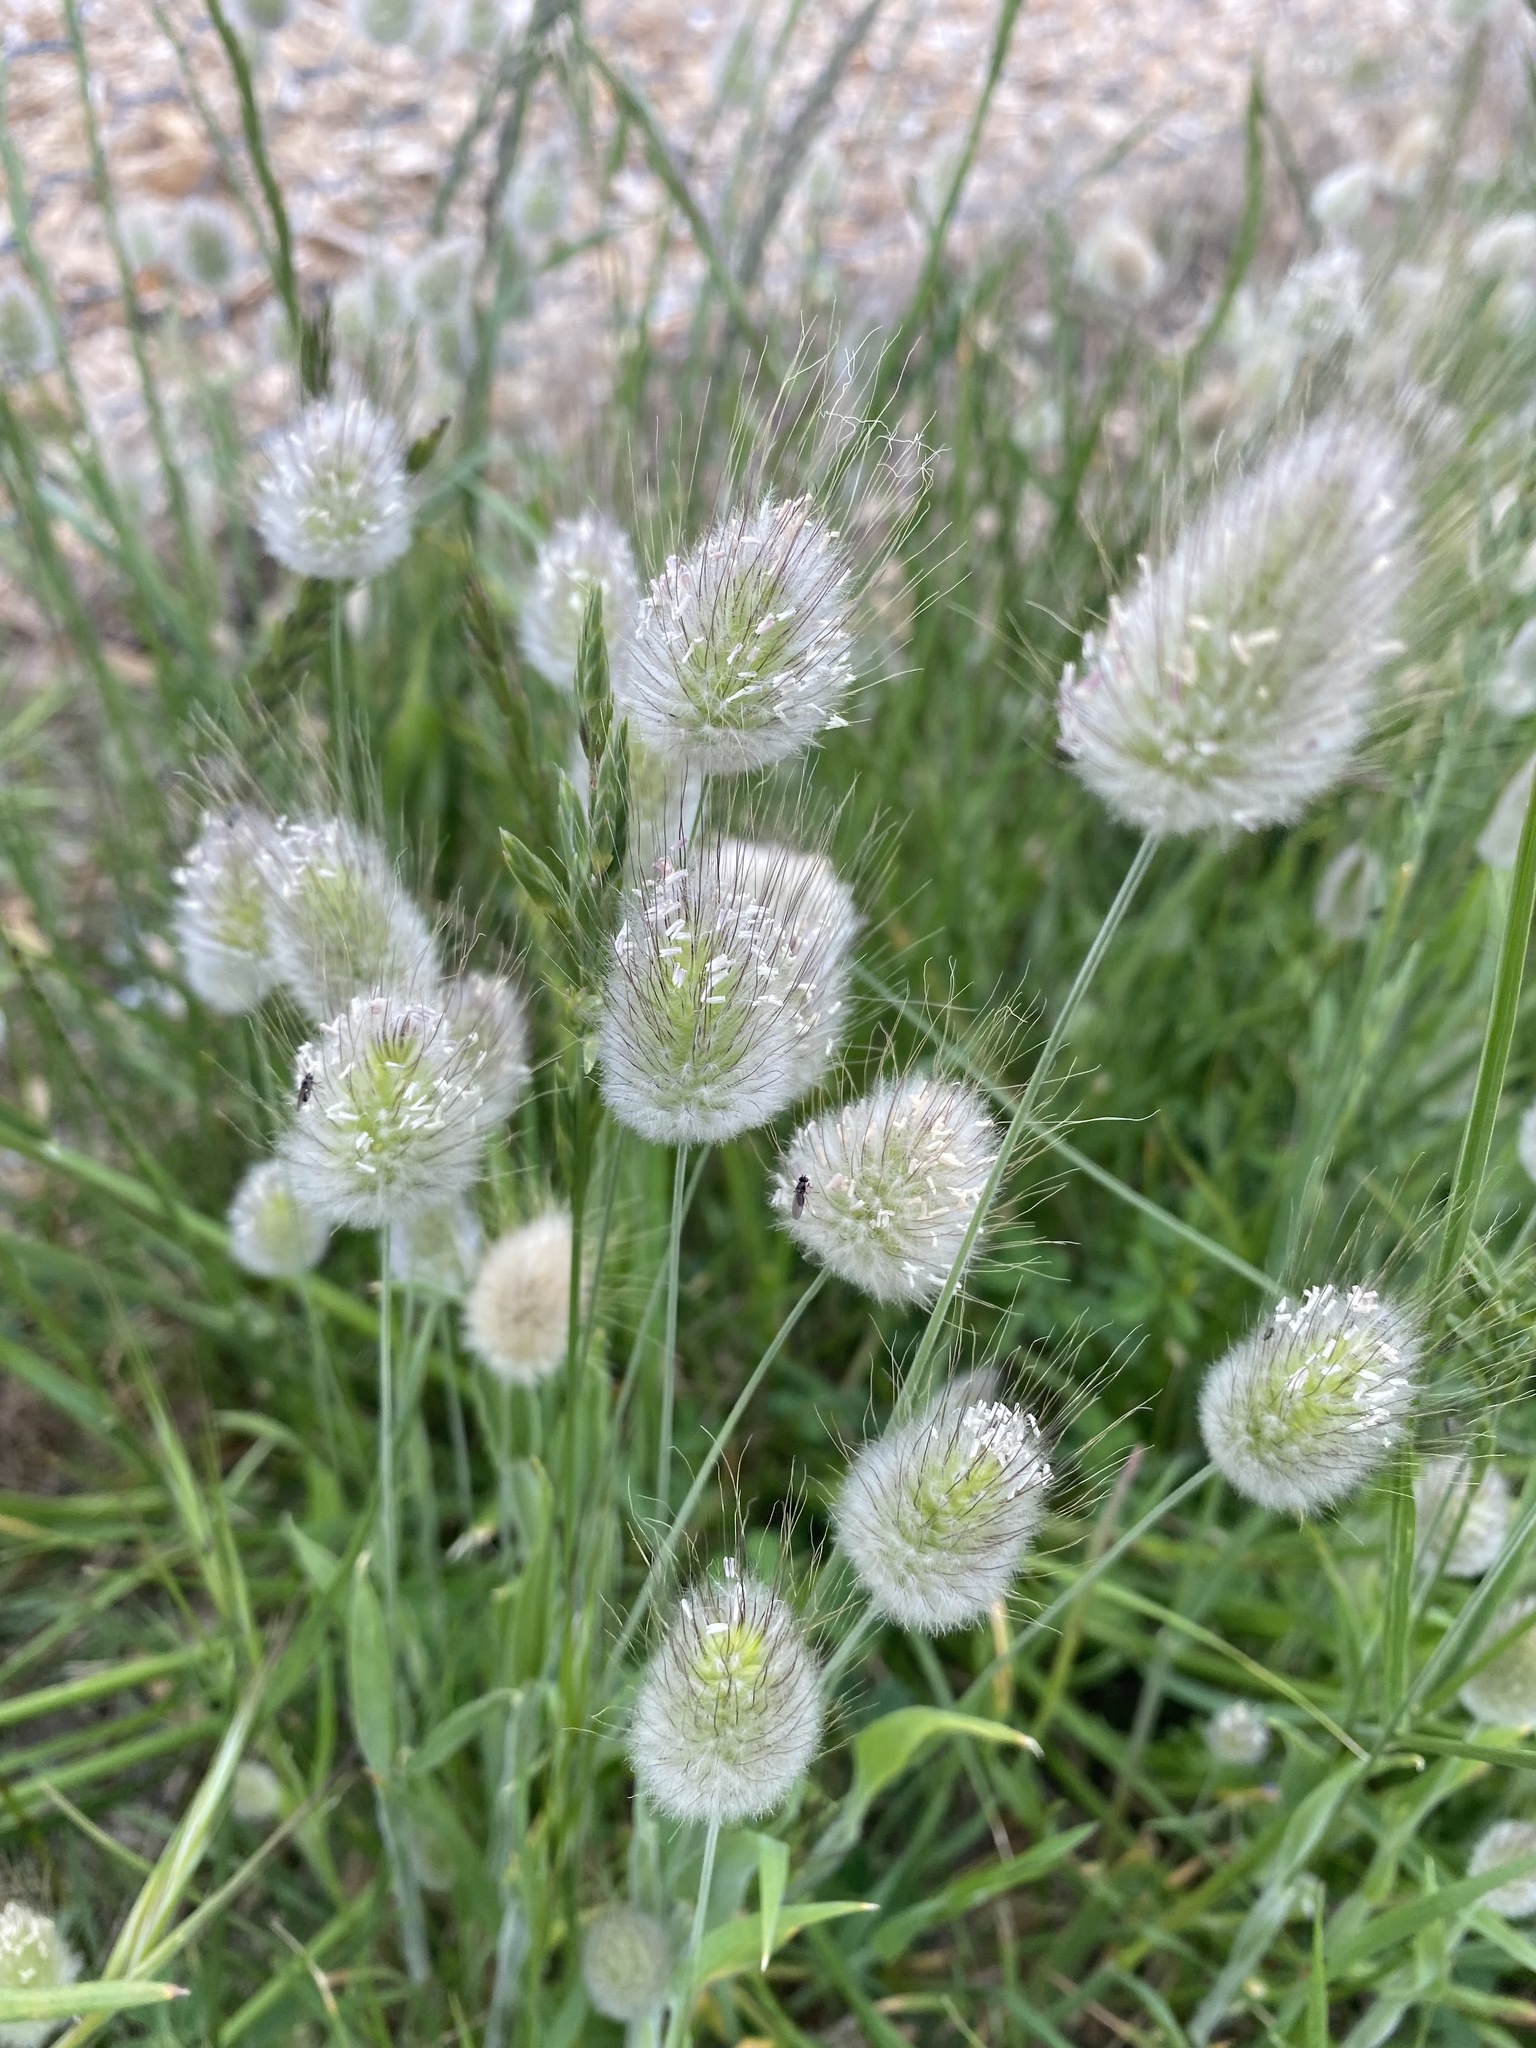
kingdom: Plantae
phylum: Tracheophyta
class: Liliopsida
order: Poales
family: Poaceae
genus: Lagurus
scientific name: Lagurus ovatus
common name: Hare's-tail
